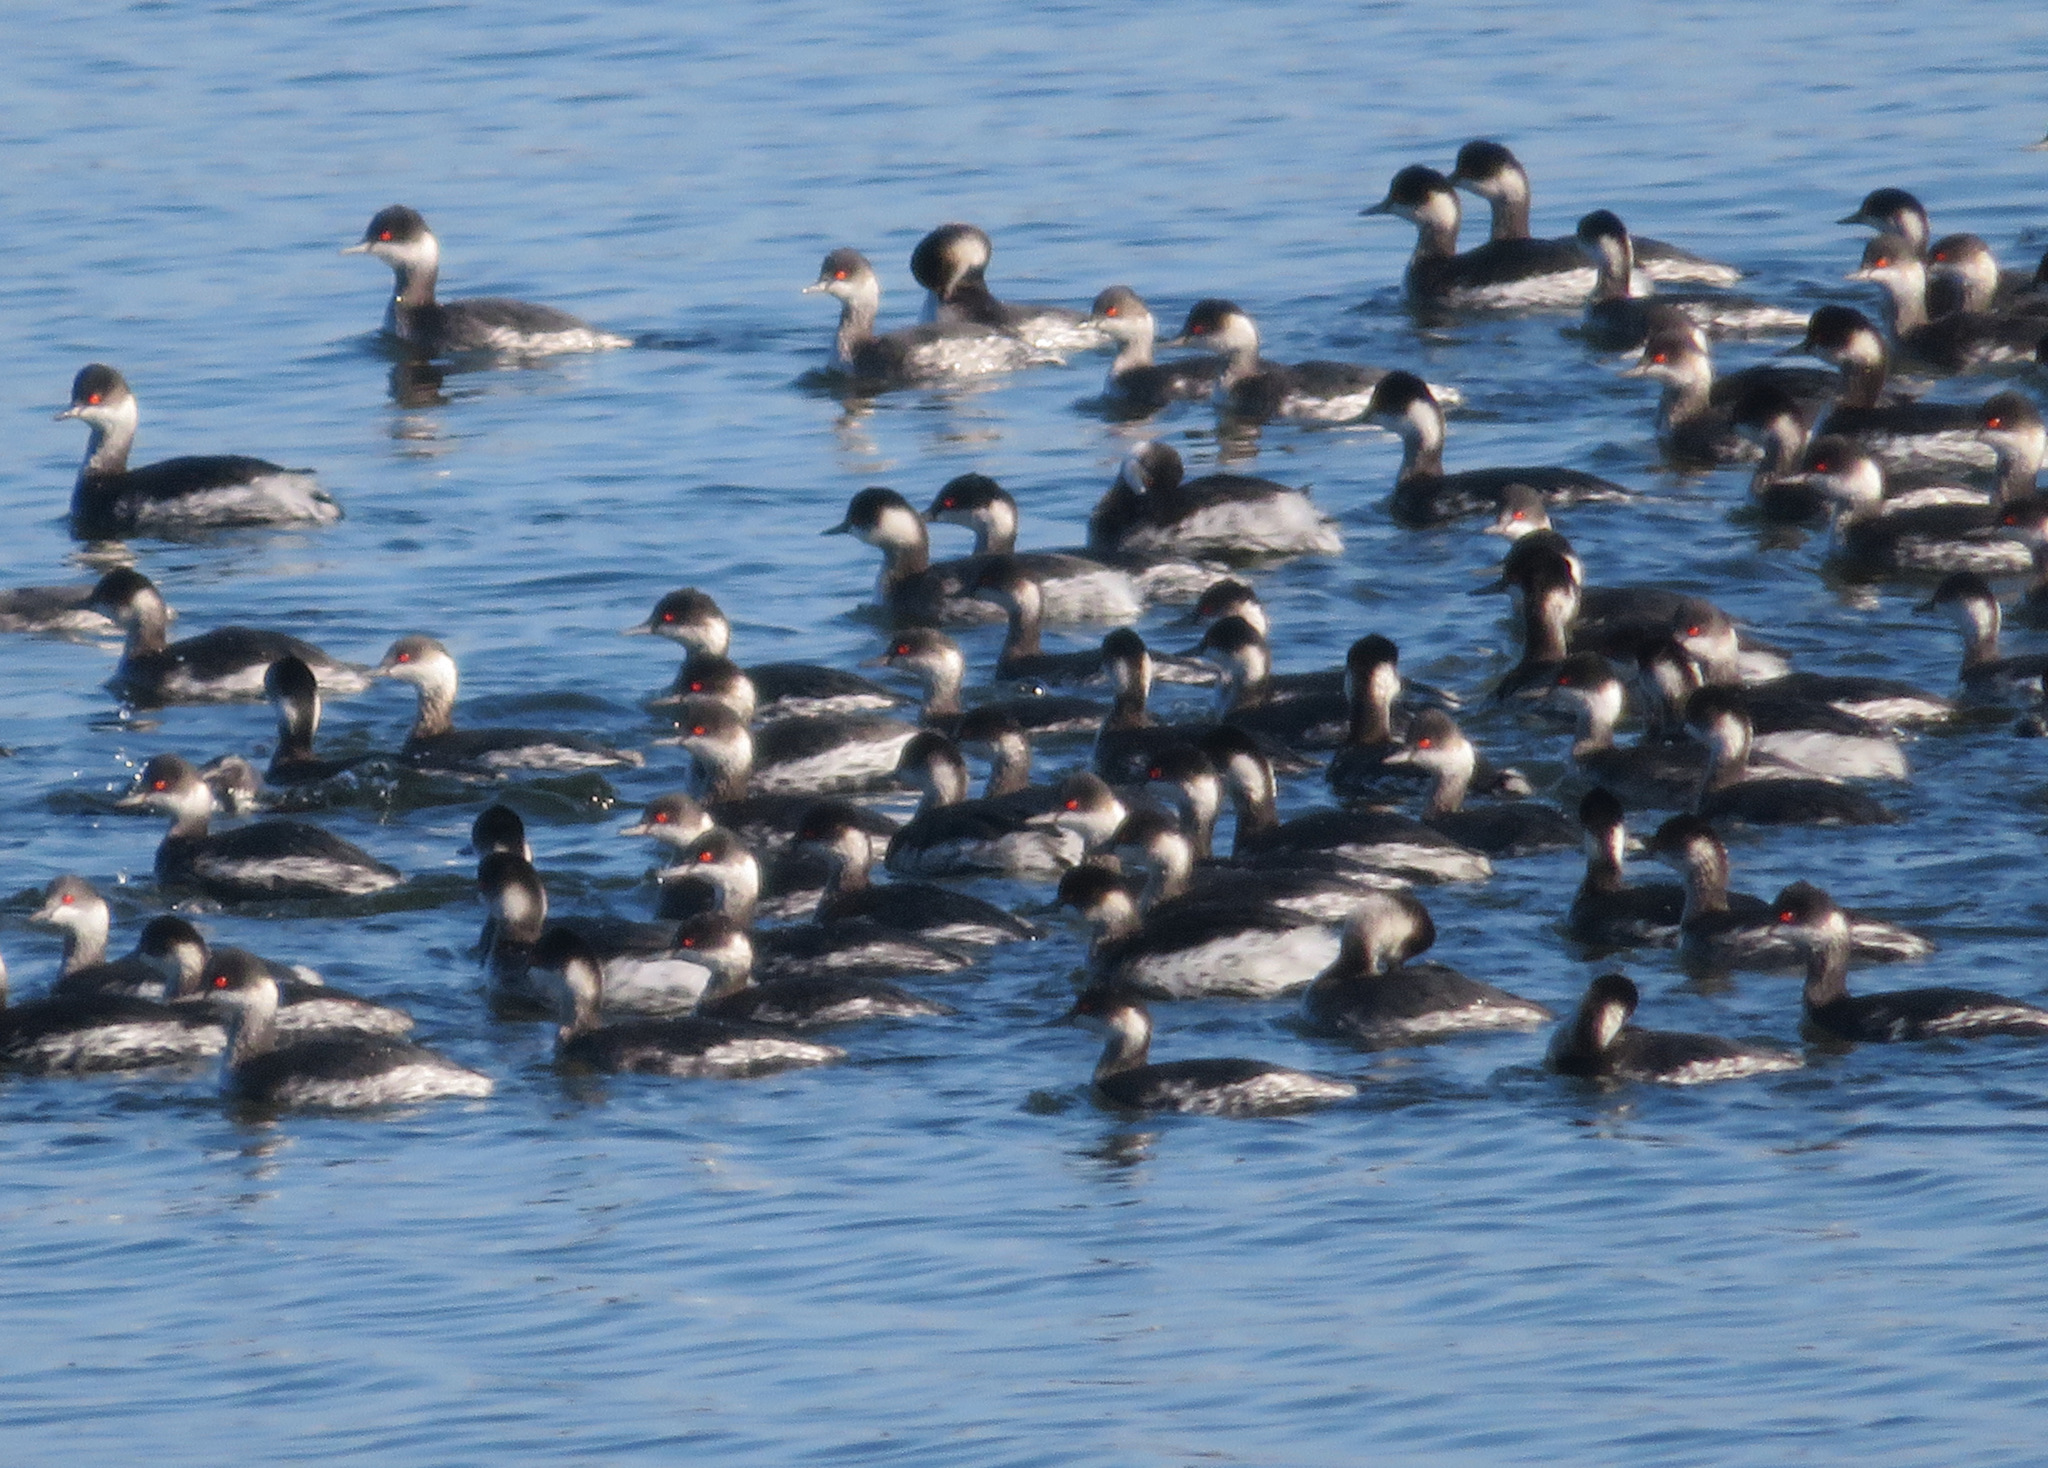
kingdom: Animalia
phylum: Chordata
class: Aves
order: Podicipediformes
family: Podicipedidae
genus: Podiceps
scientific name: Podiceps nigricollis
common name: Black-necked grebe
